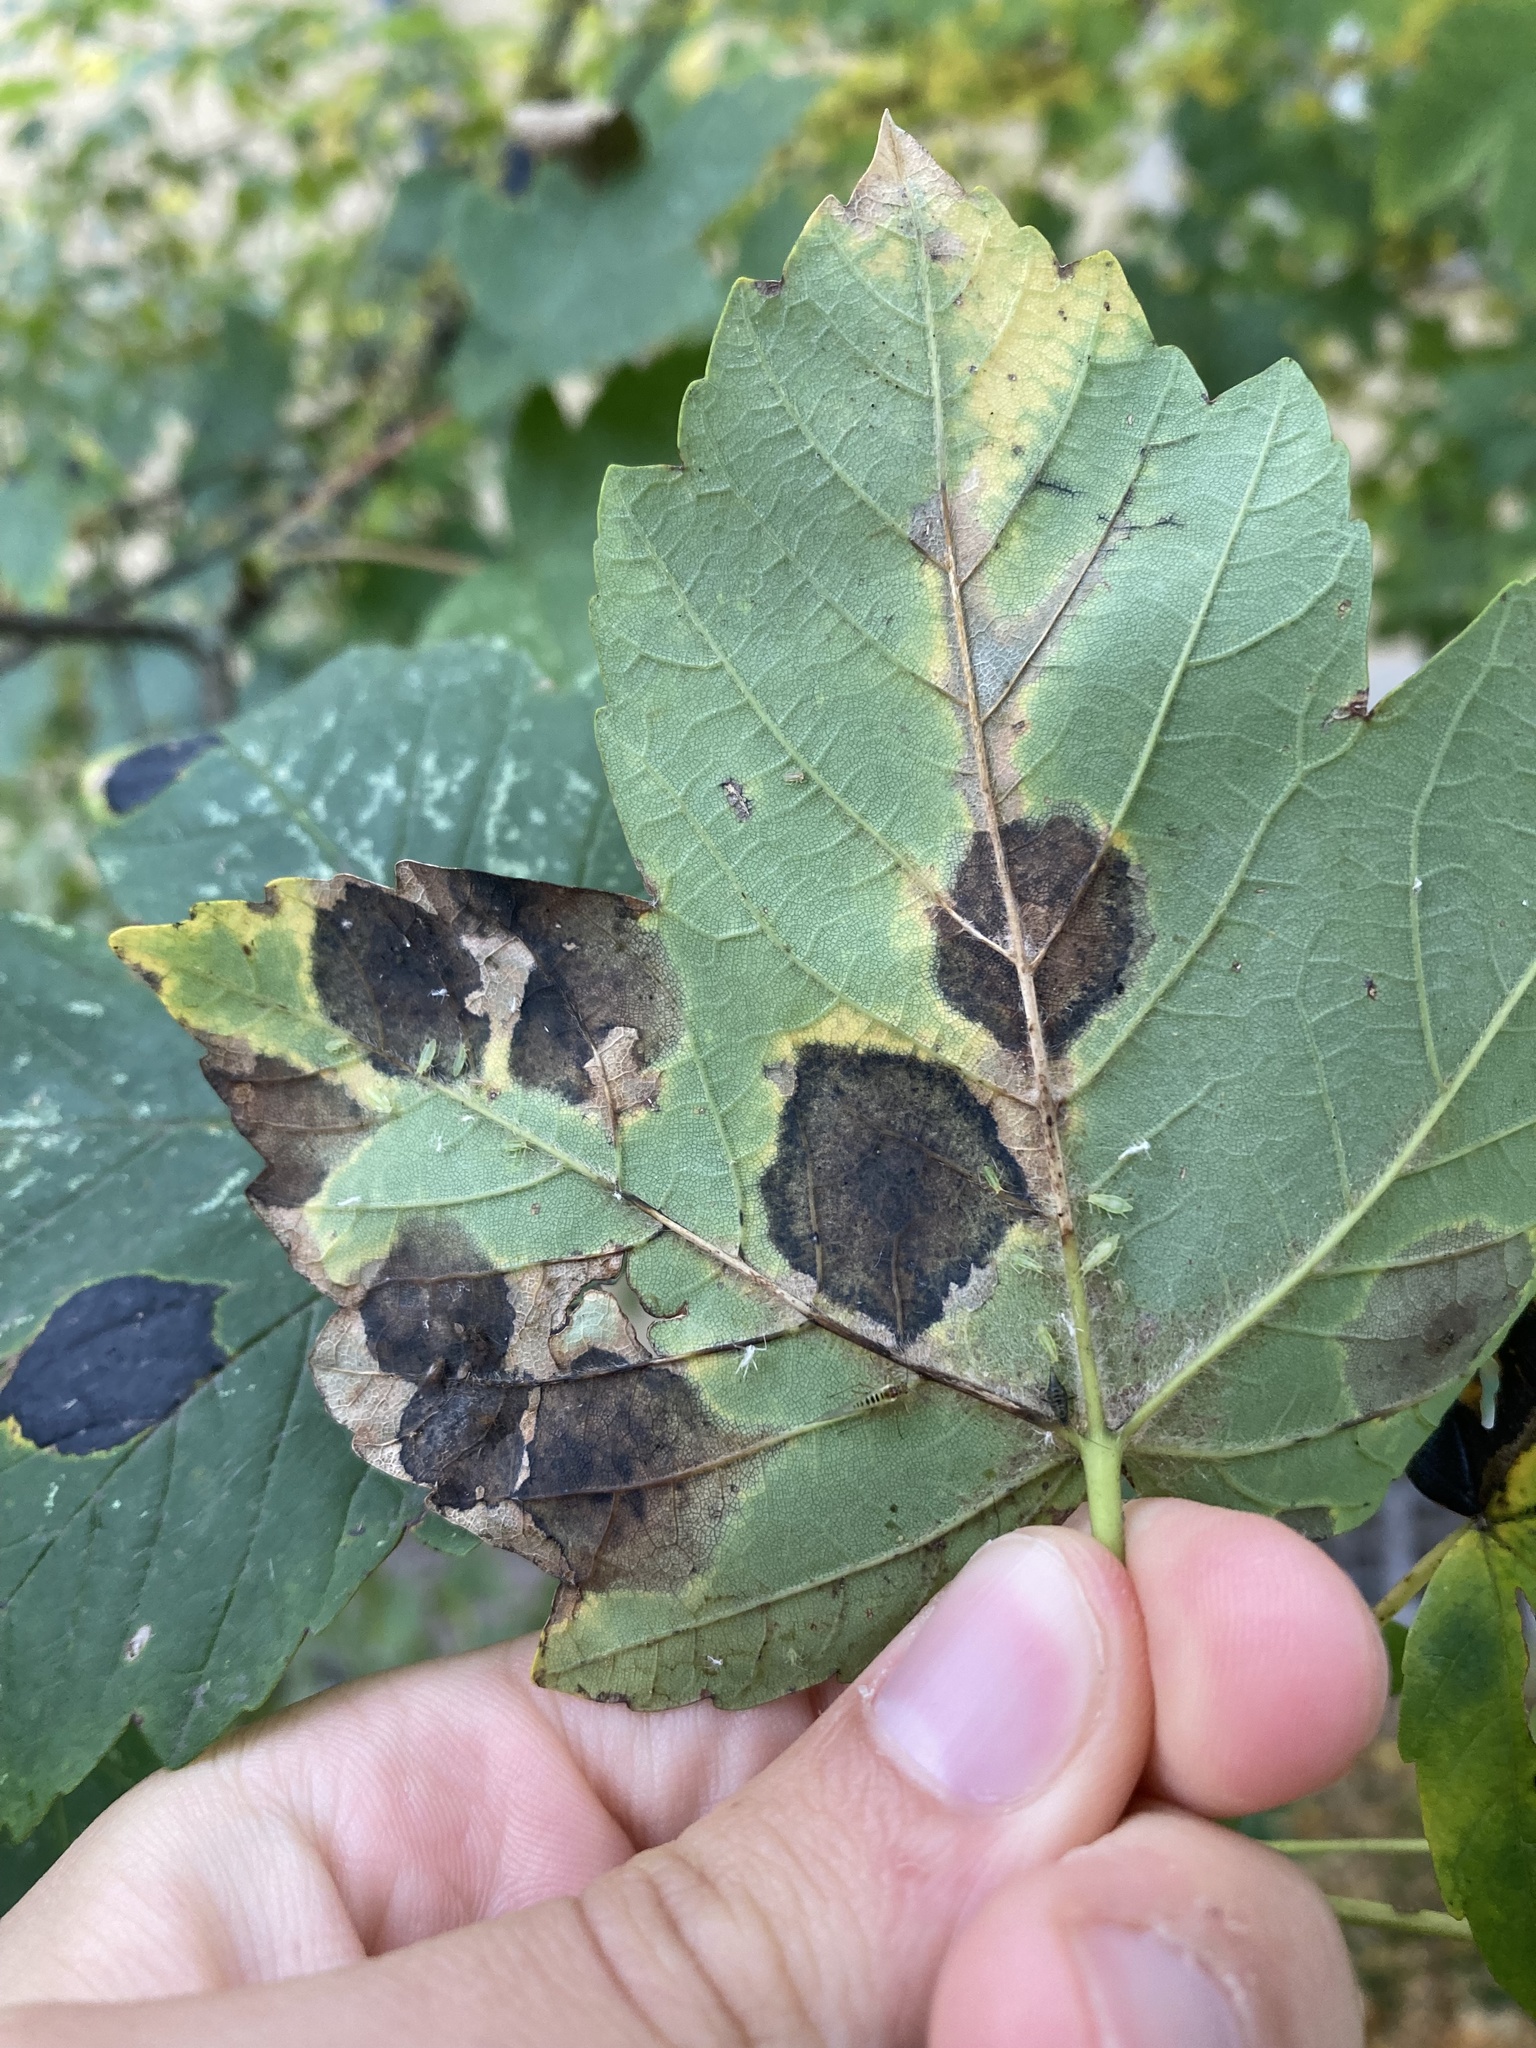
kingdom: Fungi
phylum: Ascomycota
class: Leotiomycetes
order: Rhytismatales
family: Rhytismataceae
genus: Rhytisma
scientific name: Rhytisma acerinum
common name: European tar spot
